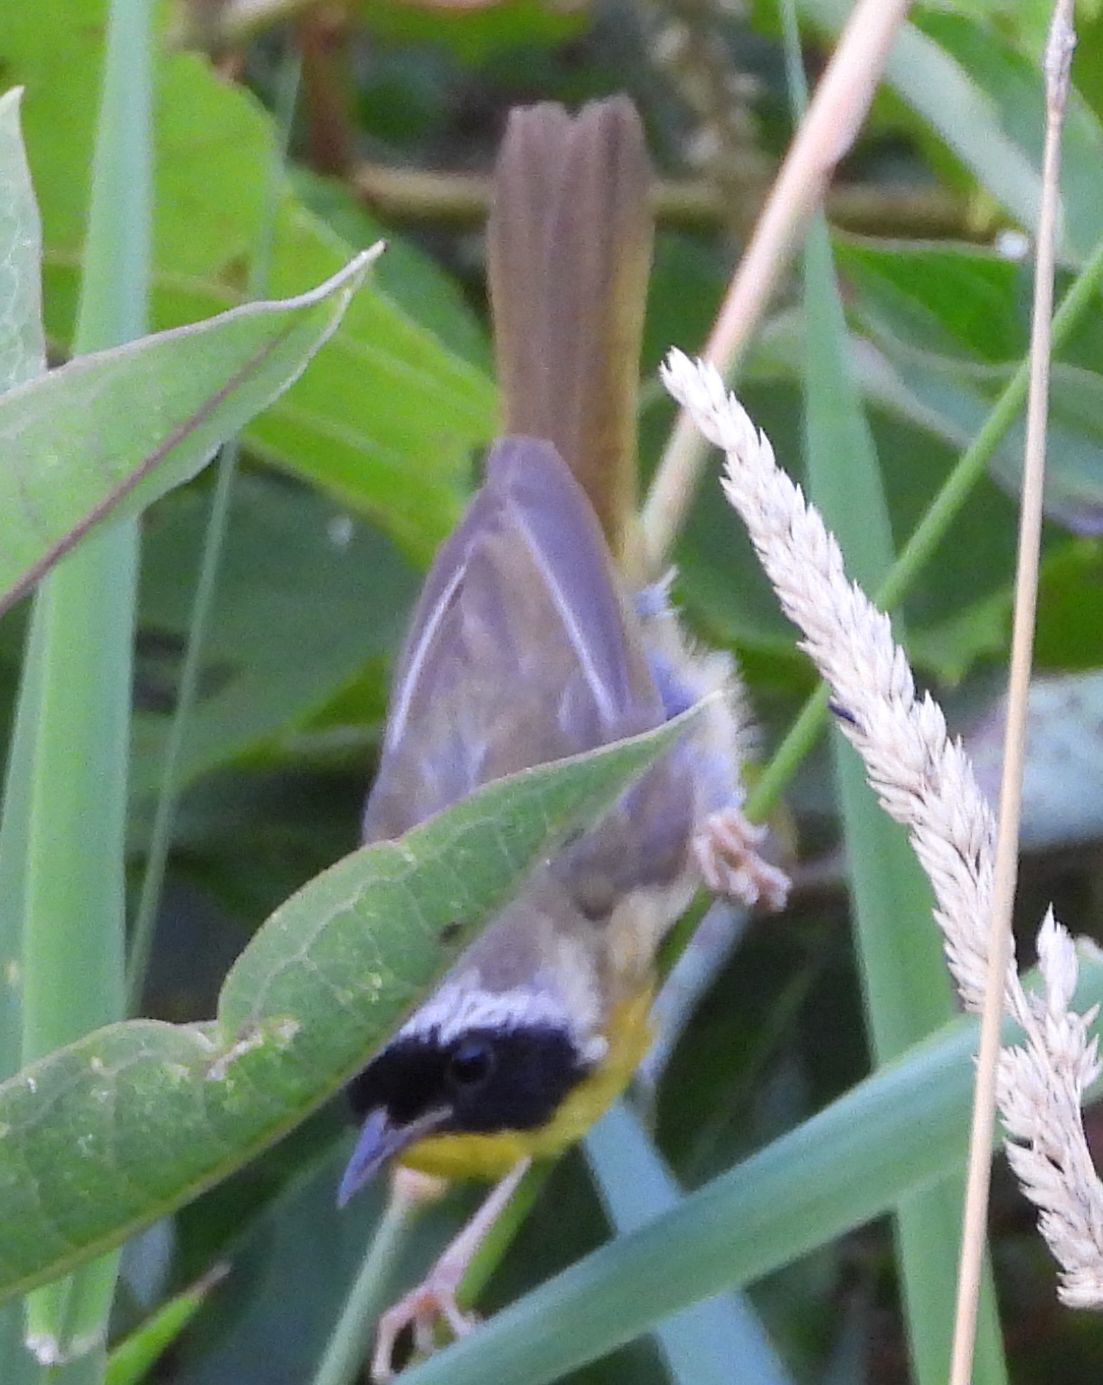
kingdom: Animalia
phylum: Chordata
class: Aves
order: Passeriformes
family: Parulidae
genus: Geothlypis
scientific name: Geothlypis trichas
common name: Common yellowthroat
